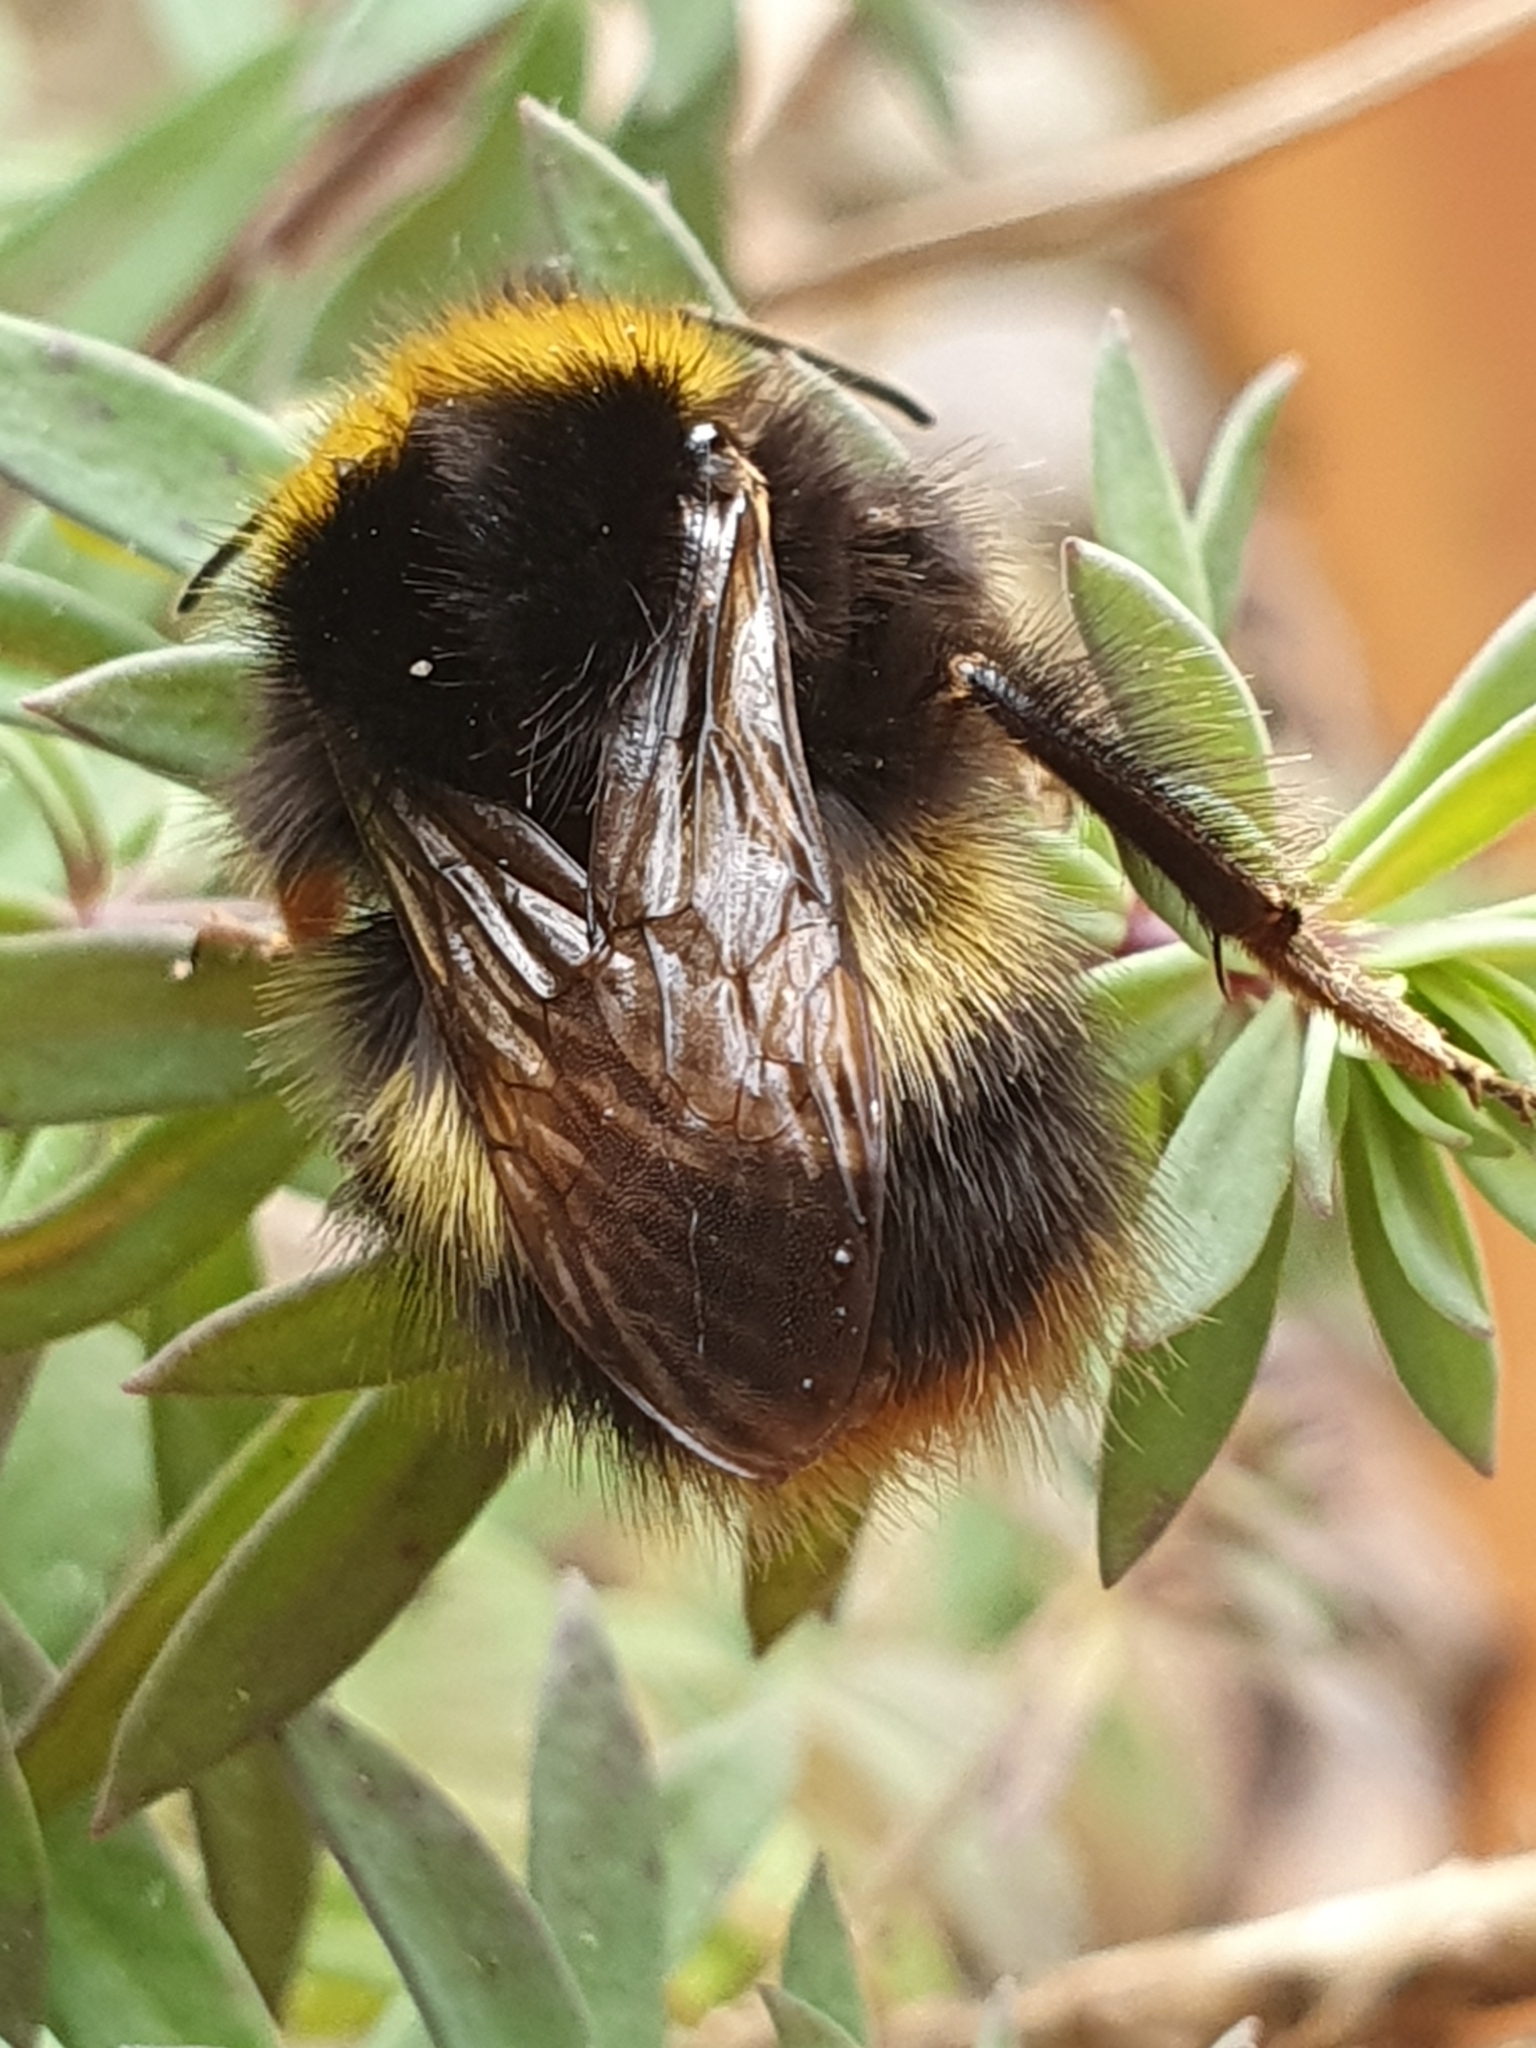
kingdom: Animalia
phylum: Arthropoda
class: Insecta
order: Hymenoptera
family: Apidae
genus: Bombus
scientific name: Bombus pratorum
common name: Early humble-bee
